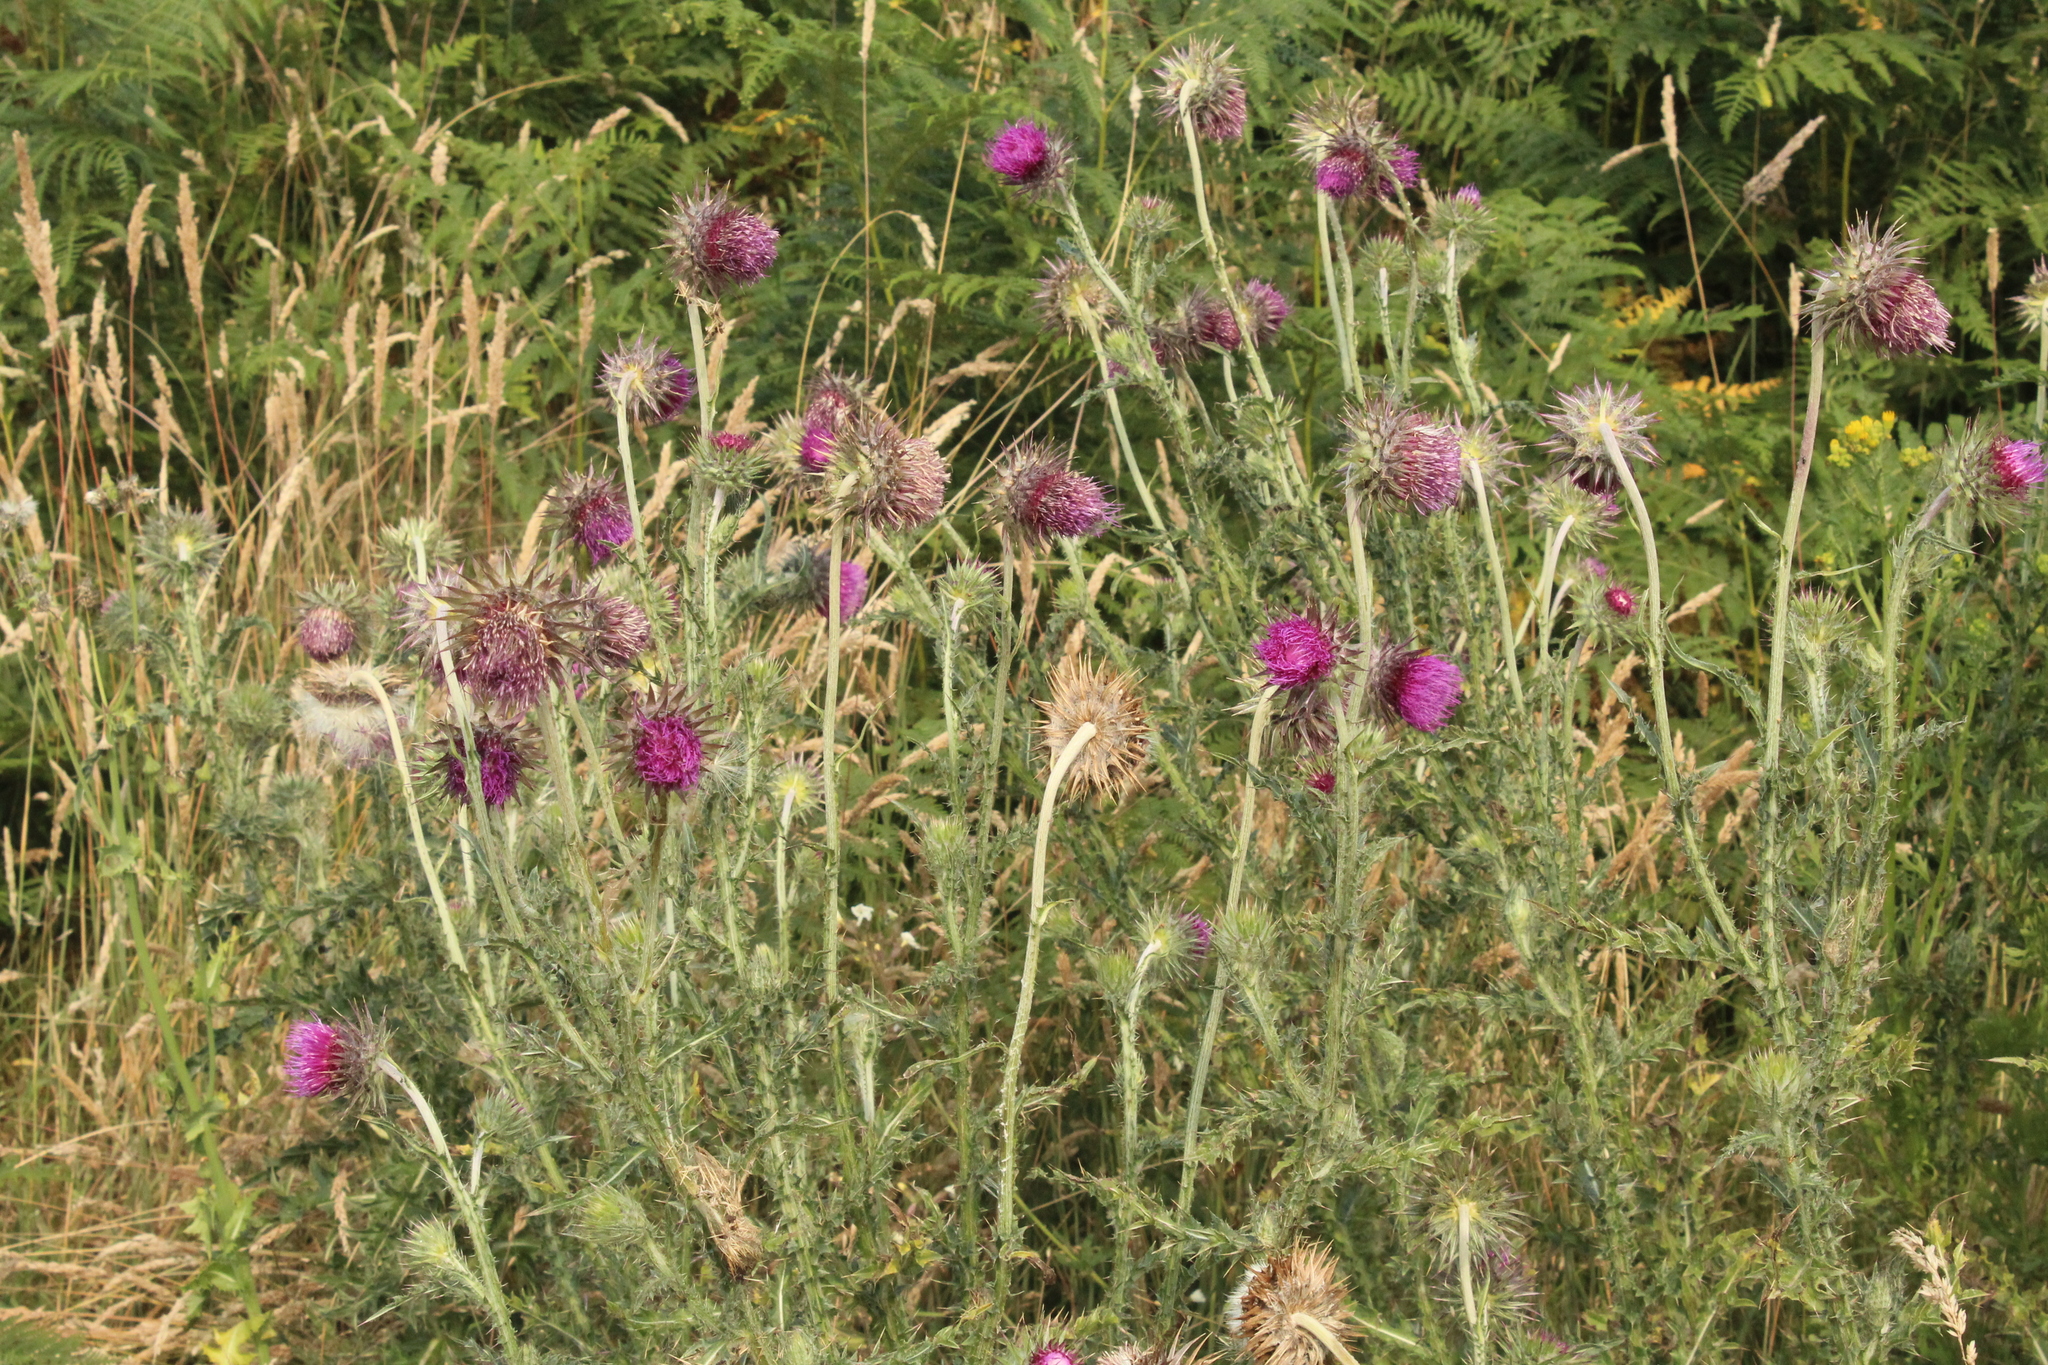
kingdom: Plantae
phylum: Tracheophyta
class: Magnoliopsida
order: Asterales
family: Asteraceae
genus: Carduus
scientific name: Carduus nutans
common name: Musk thistle
